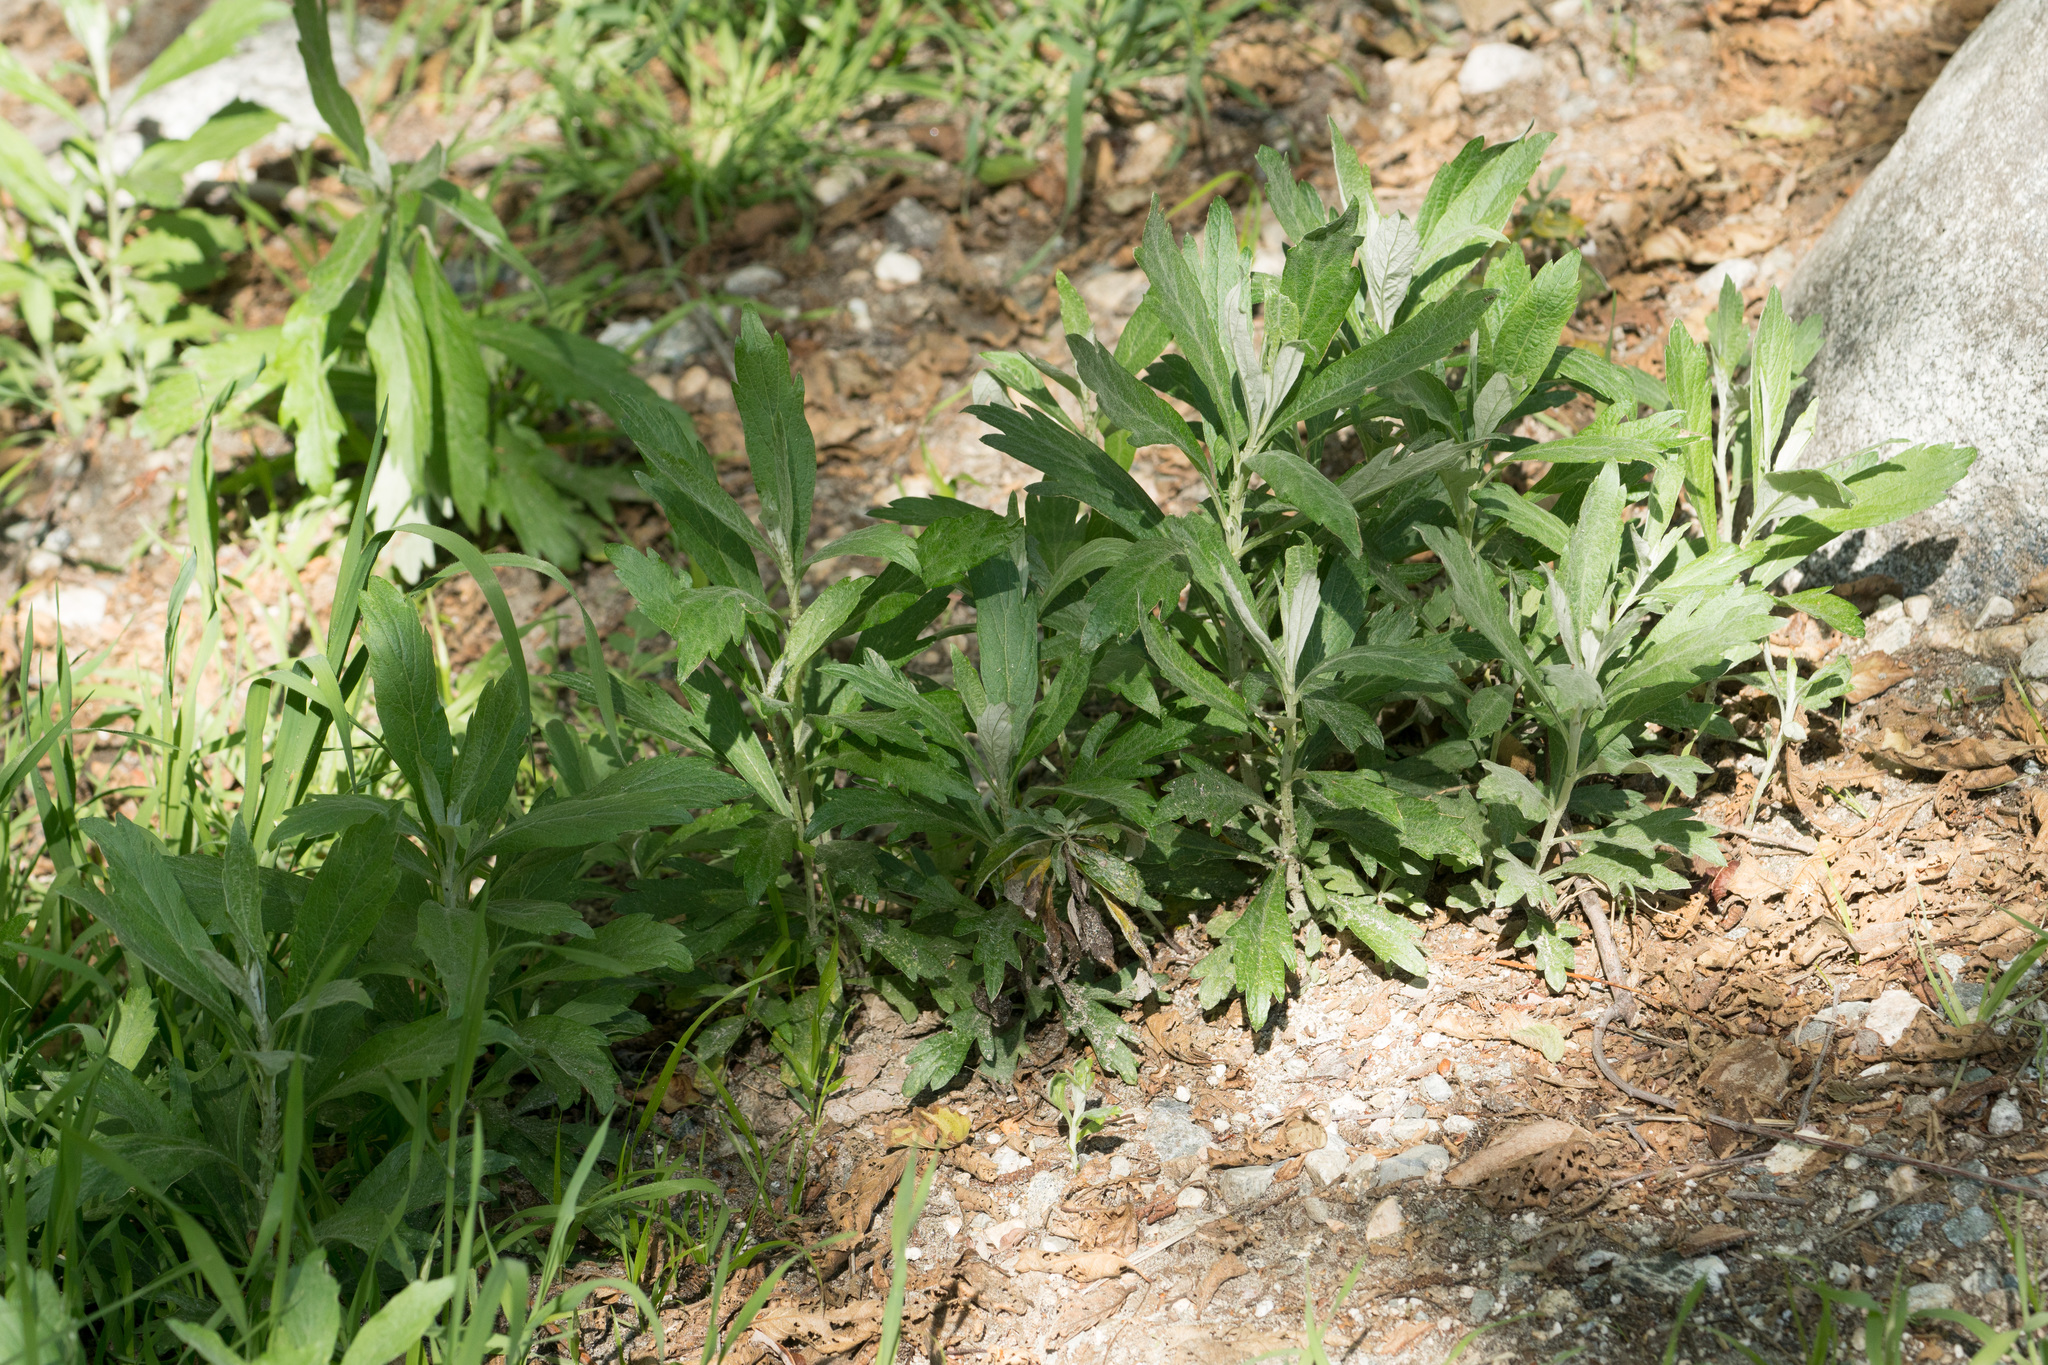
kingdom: Plantae
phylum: Tracheophyta
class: Magnoliopsida
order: Asterales
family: Asteraceae
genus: Artemisia
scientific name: Artemisia douglasiana
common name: Northwest mugwort
